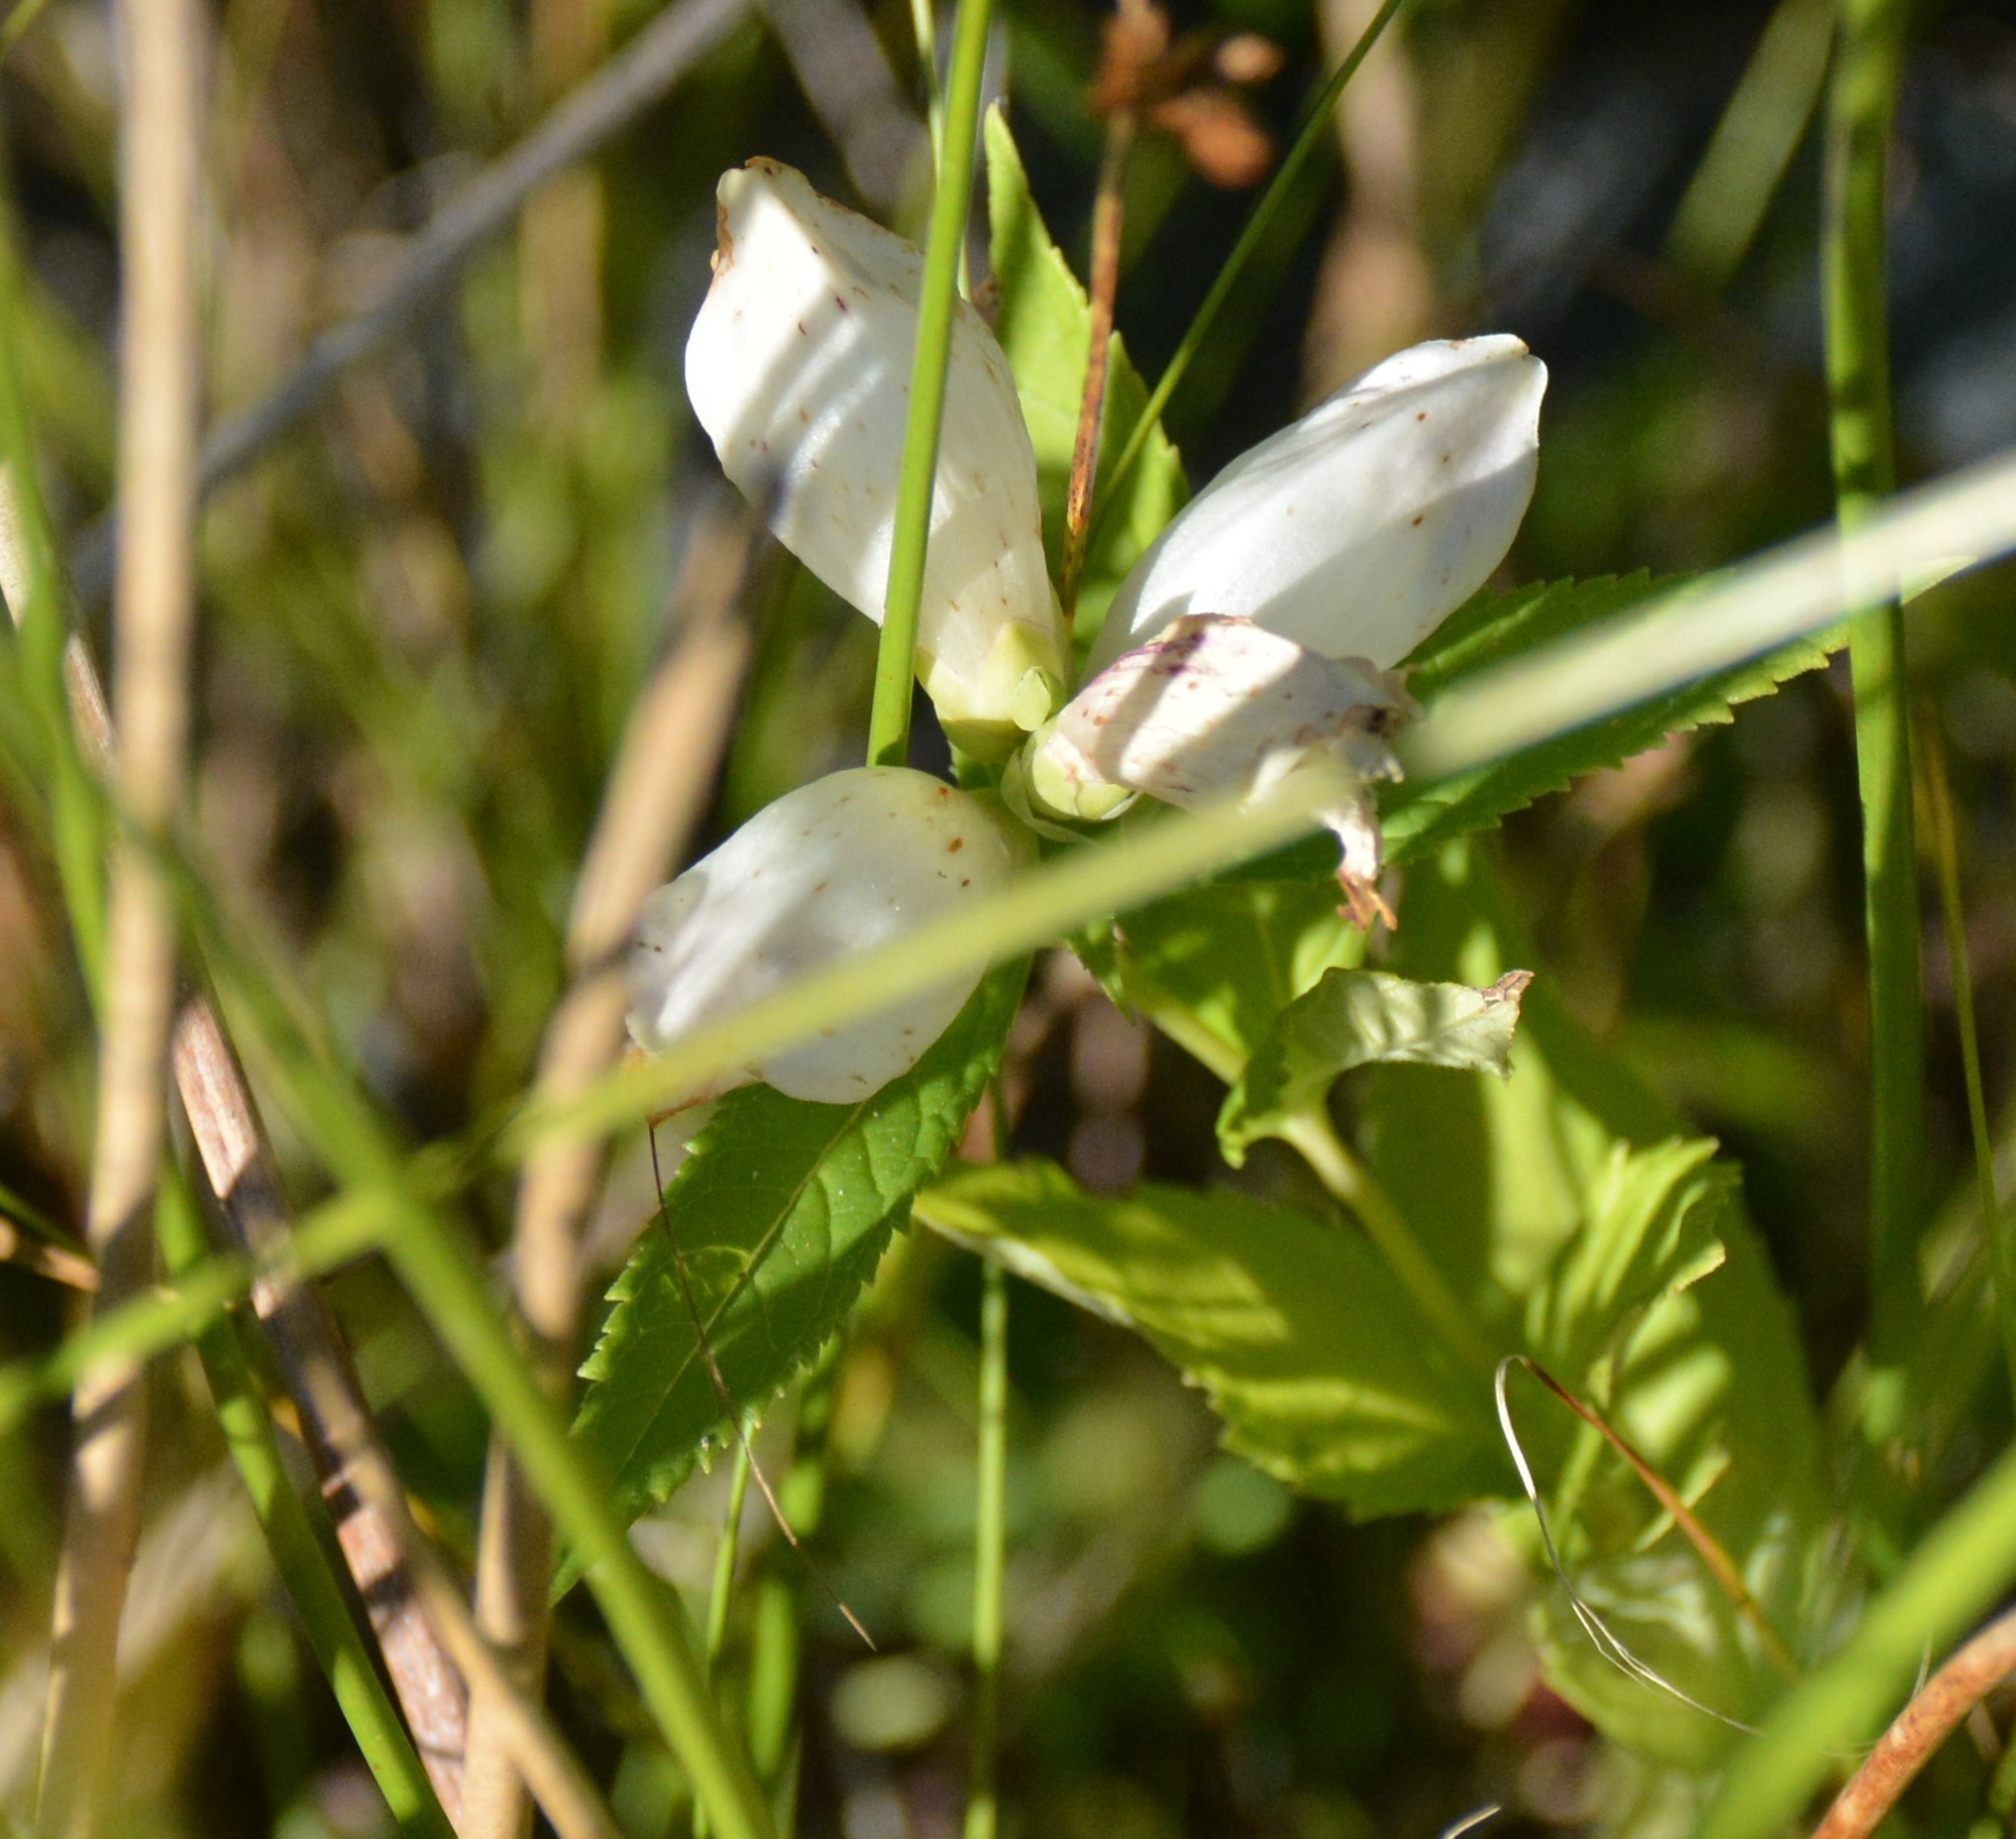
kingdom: Plantae
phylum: Tracheophyta
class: Magnoliopsida
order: Lamiales
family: Plantaginaceae
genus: Chelone
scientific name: Chelone glabra
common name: Snakehead
